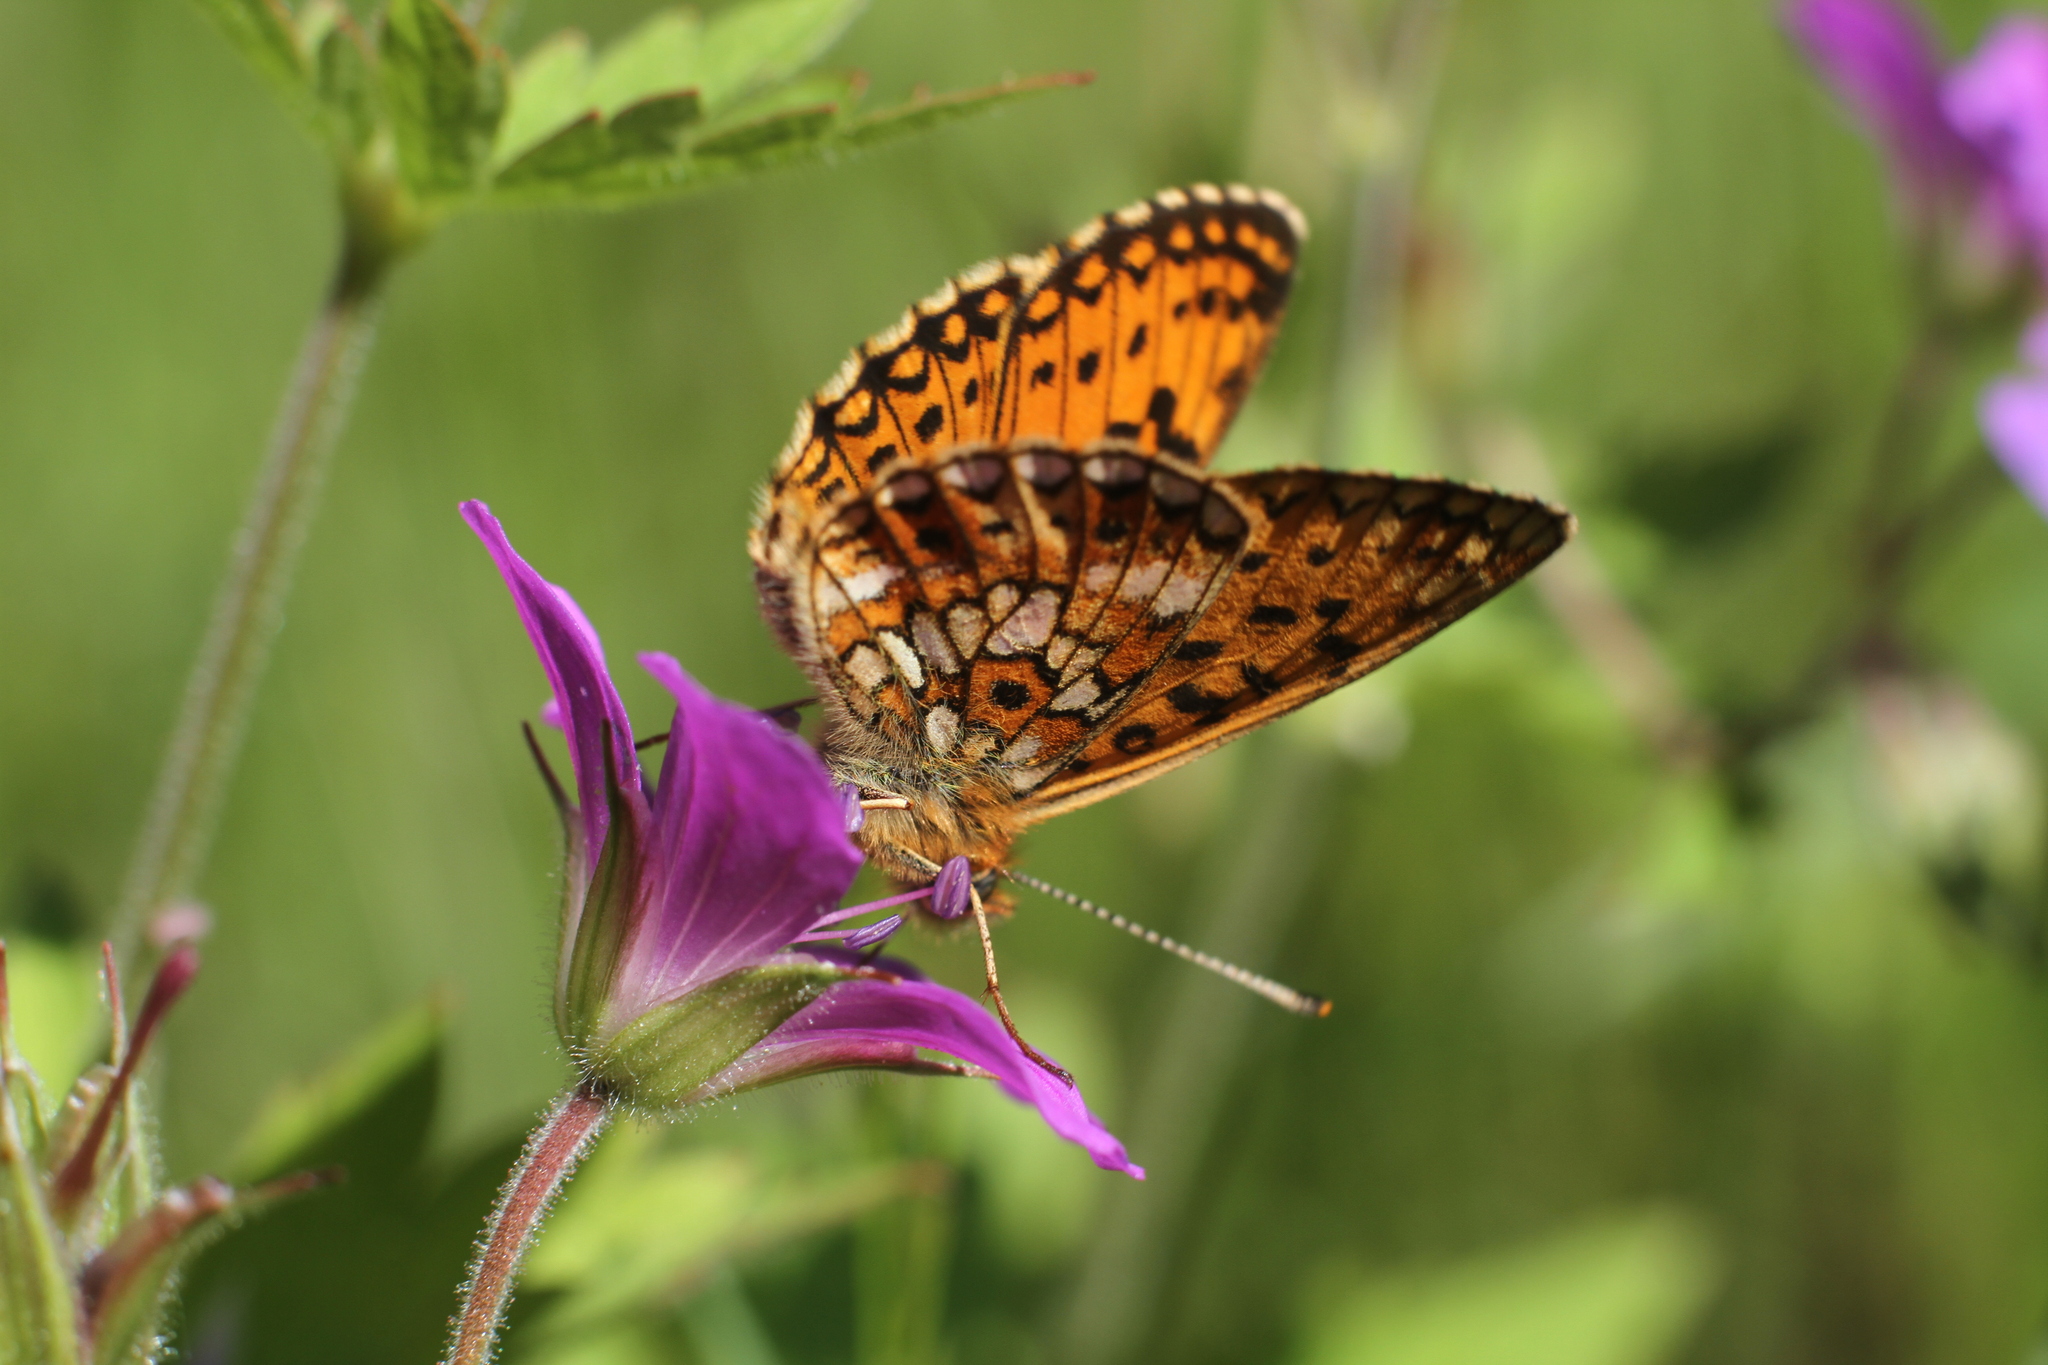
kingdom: Animalia
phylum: Arthropoda
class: Insecta
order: Lepidoptera
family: Nymphalidae
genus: Boloria
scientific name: Boloria selene
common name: Small pearl-bordered fritillary
